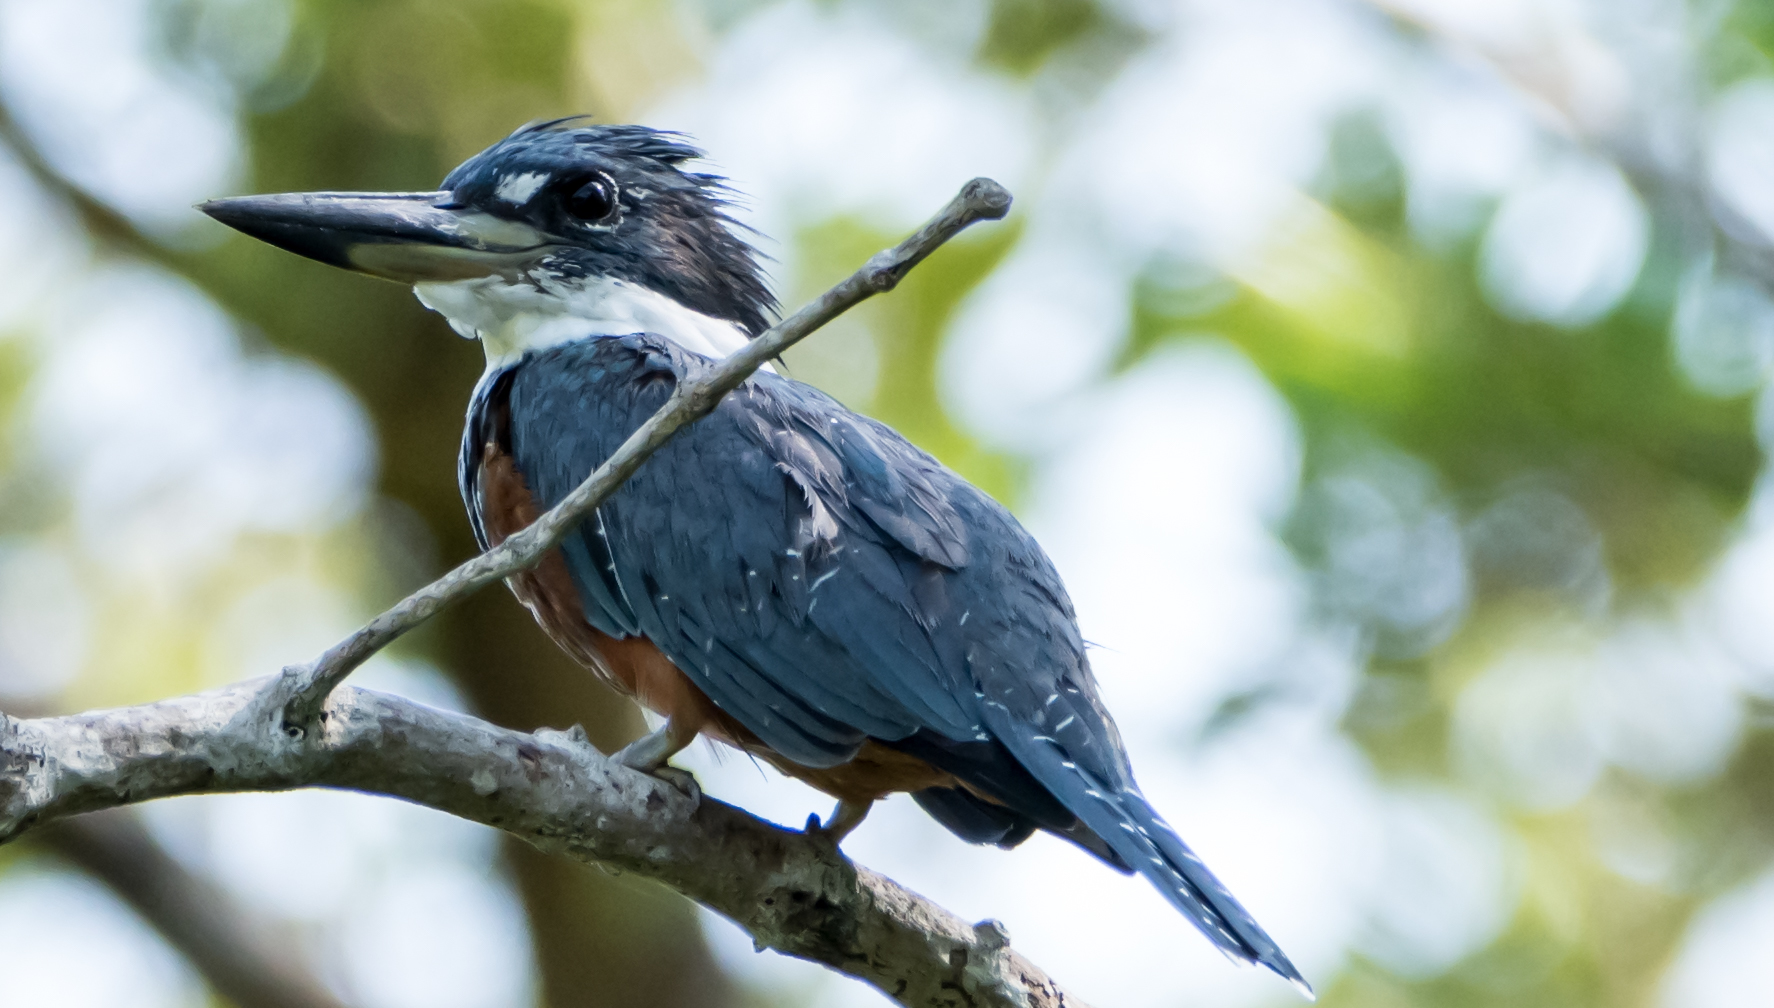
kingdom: Animalia
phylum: Chordata
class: Aves
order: Coraciiformes
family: Alcedinidae
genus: Megaceryle
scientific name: Megaceryle torquata
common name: Ringed kingfisher
